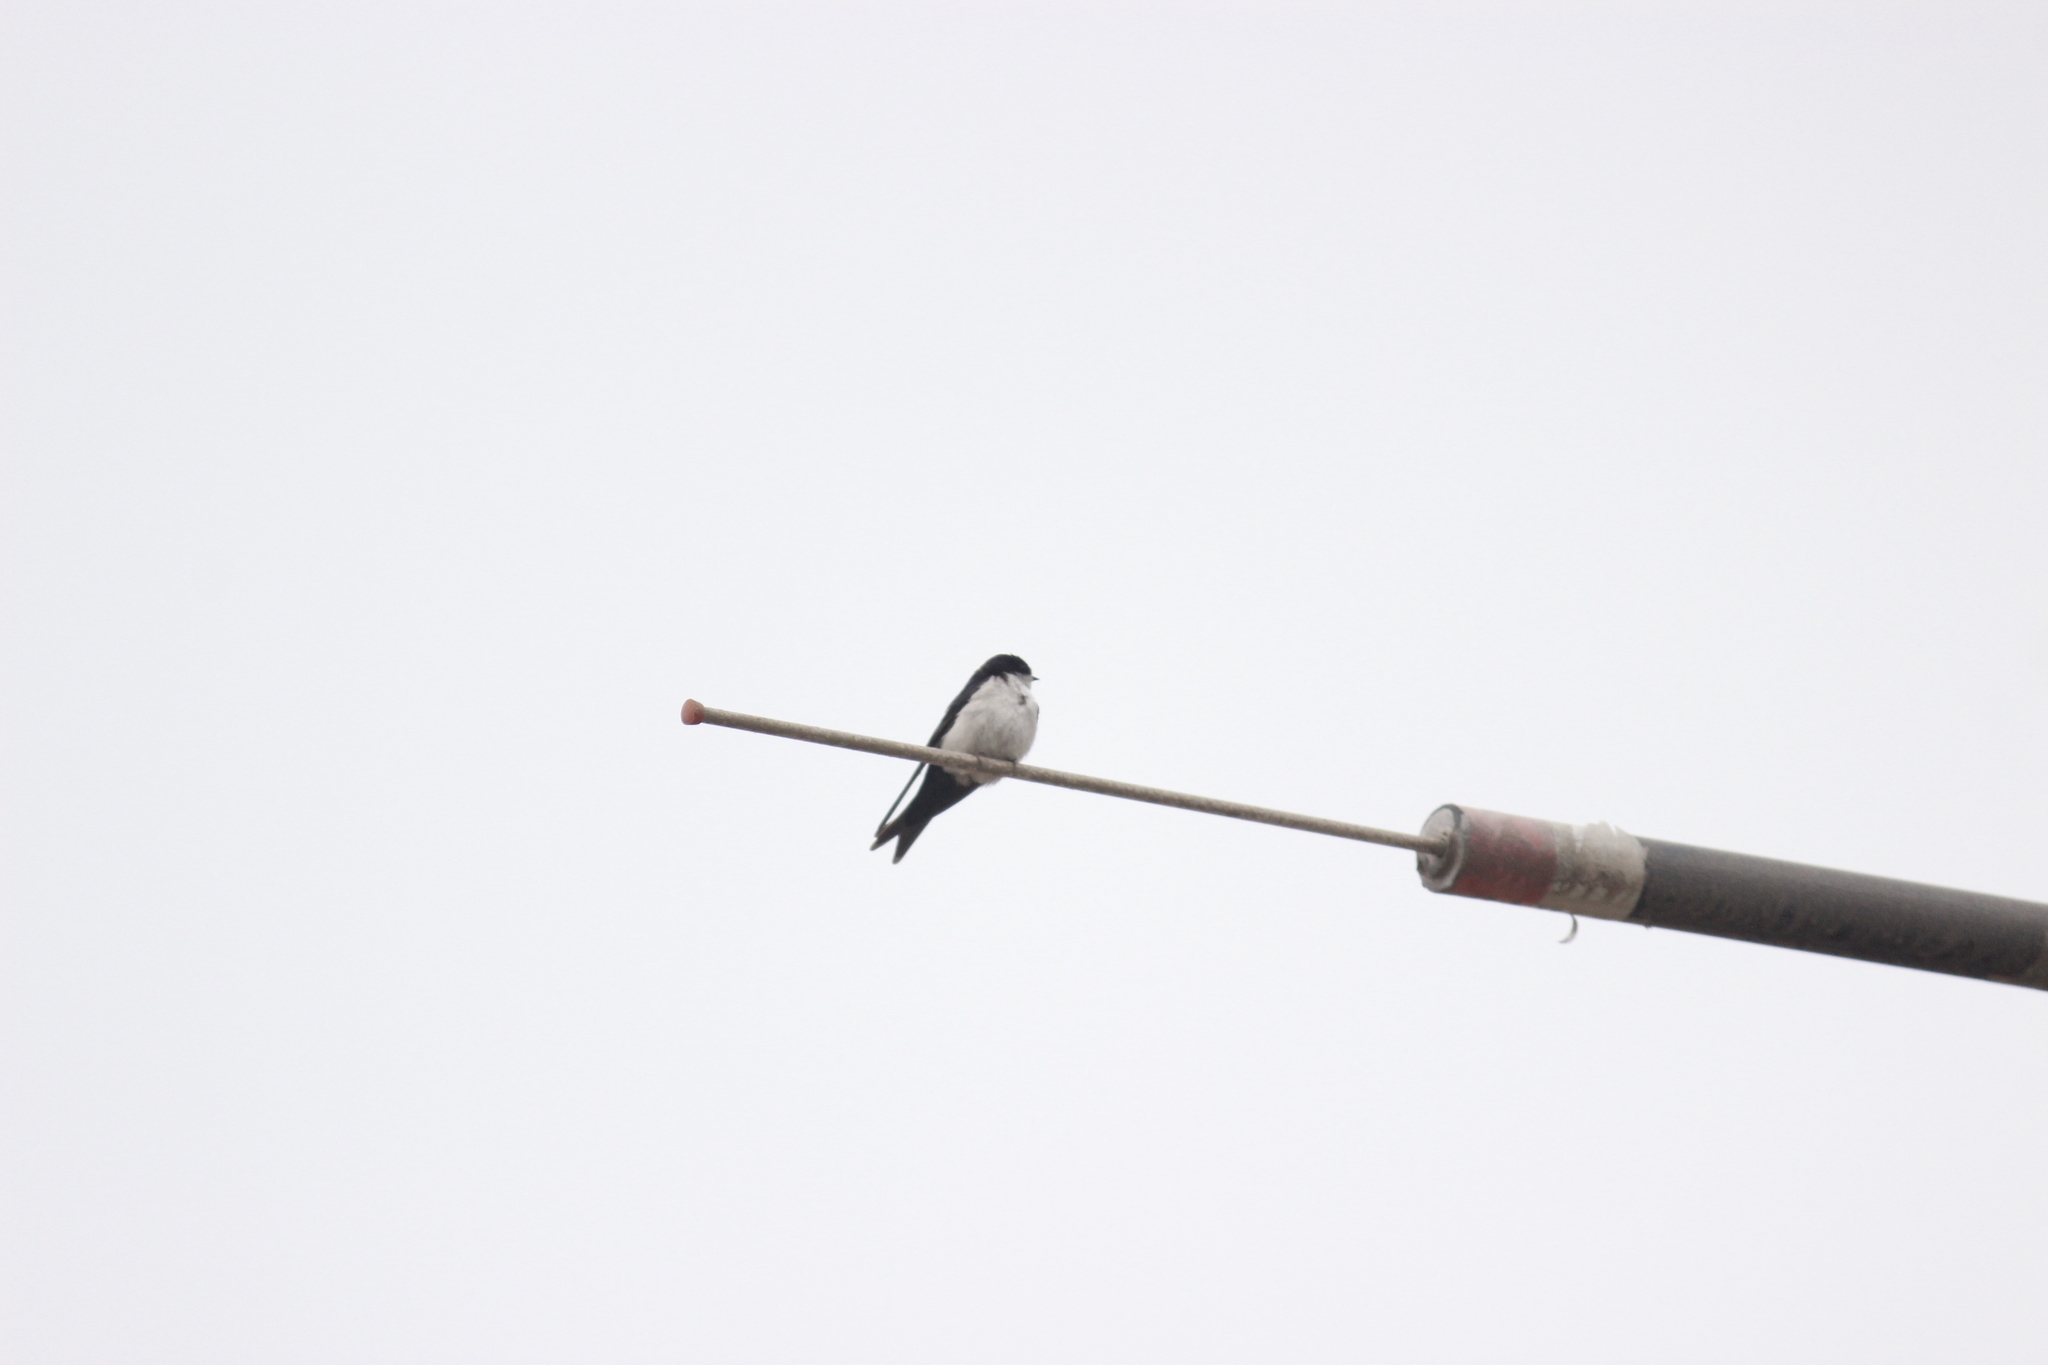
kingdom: Animalia
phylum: Chordata
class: Aves
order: Passeriformes
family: Hirundinidae
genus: Notiochelidon
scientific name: Notiochelidon cyanoleuca
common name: Blue-and-white swallow
